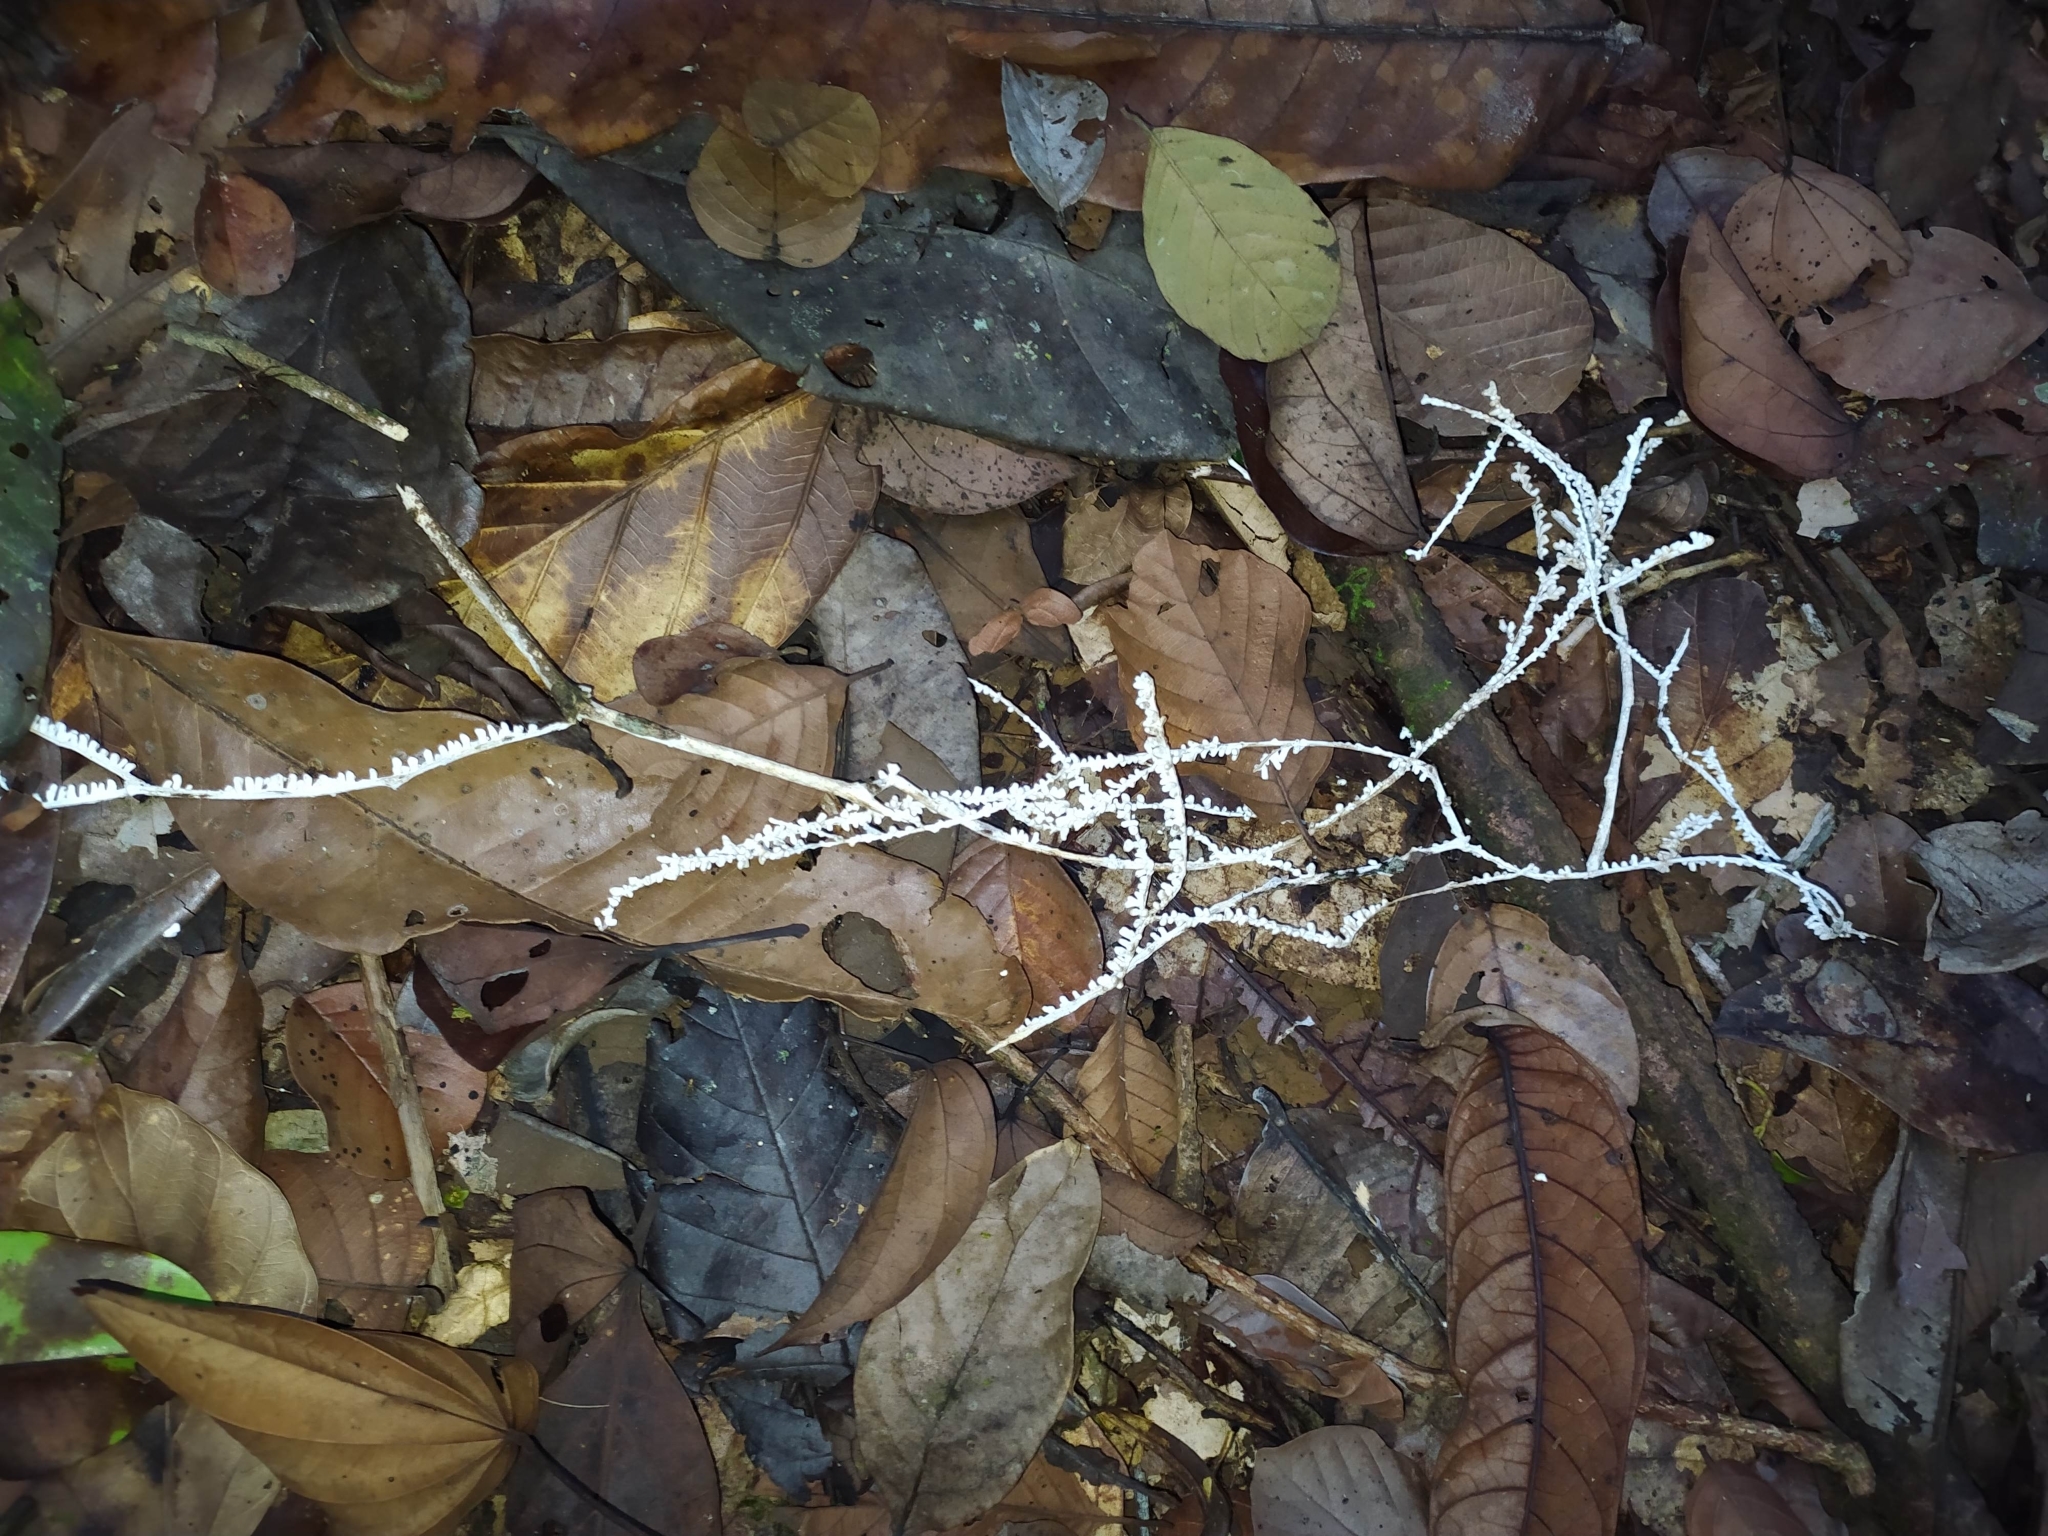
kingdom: Fungi
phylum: Basidiomycota
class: Agaricomycetes
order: Agaricales
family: Marasmiaceae
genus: Brunneocorticium
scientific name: Brunneocorticium corynecarpon
